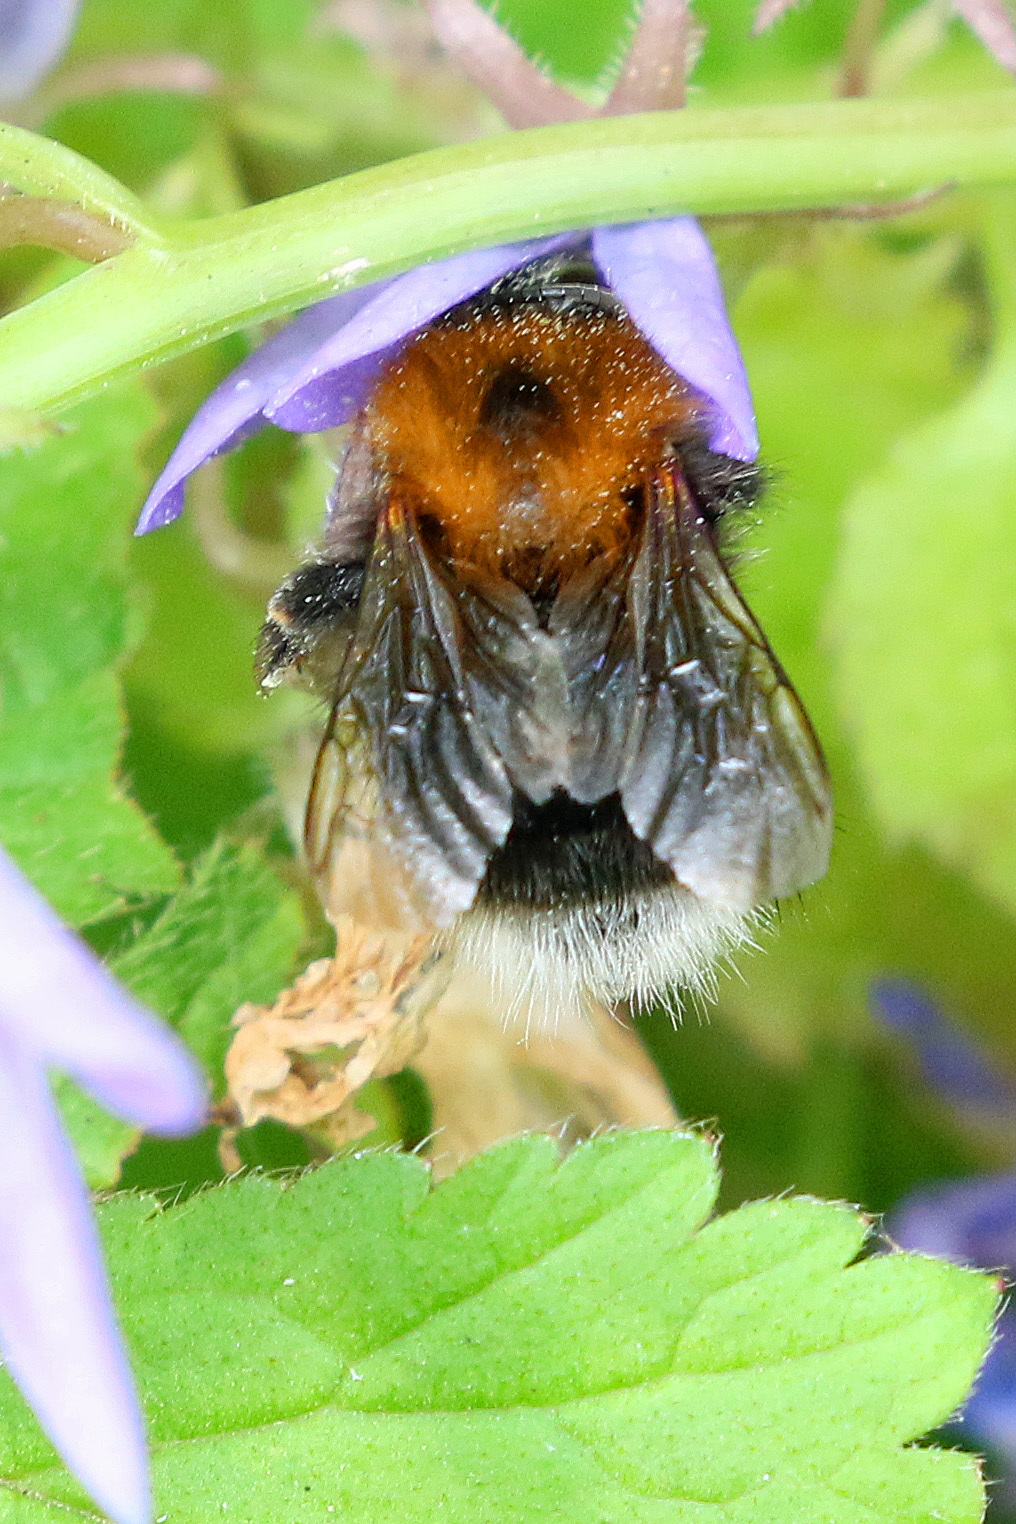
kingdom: Animalia
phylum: Arthropoda
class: Insecta
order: Hymenoptera
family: Apidae
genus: Bombus
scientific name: Bombus hypnorum
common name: New garden bumblebee
